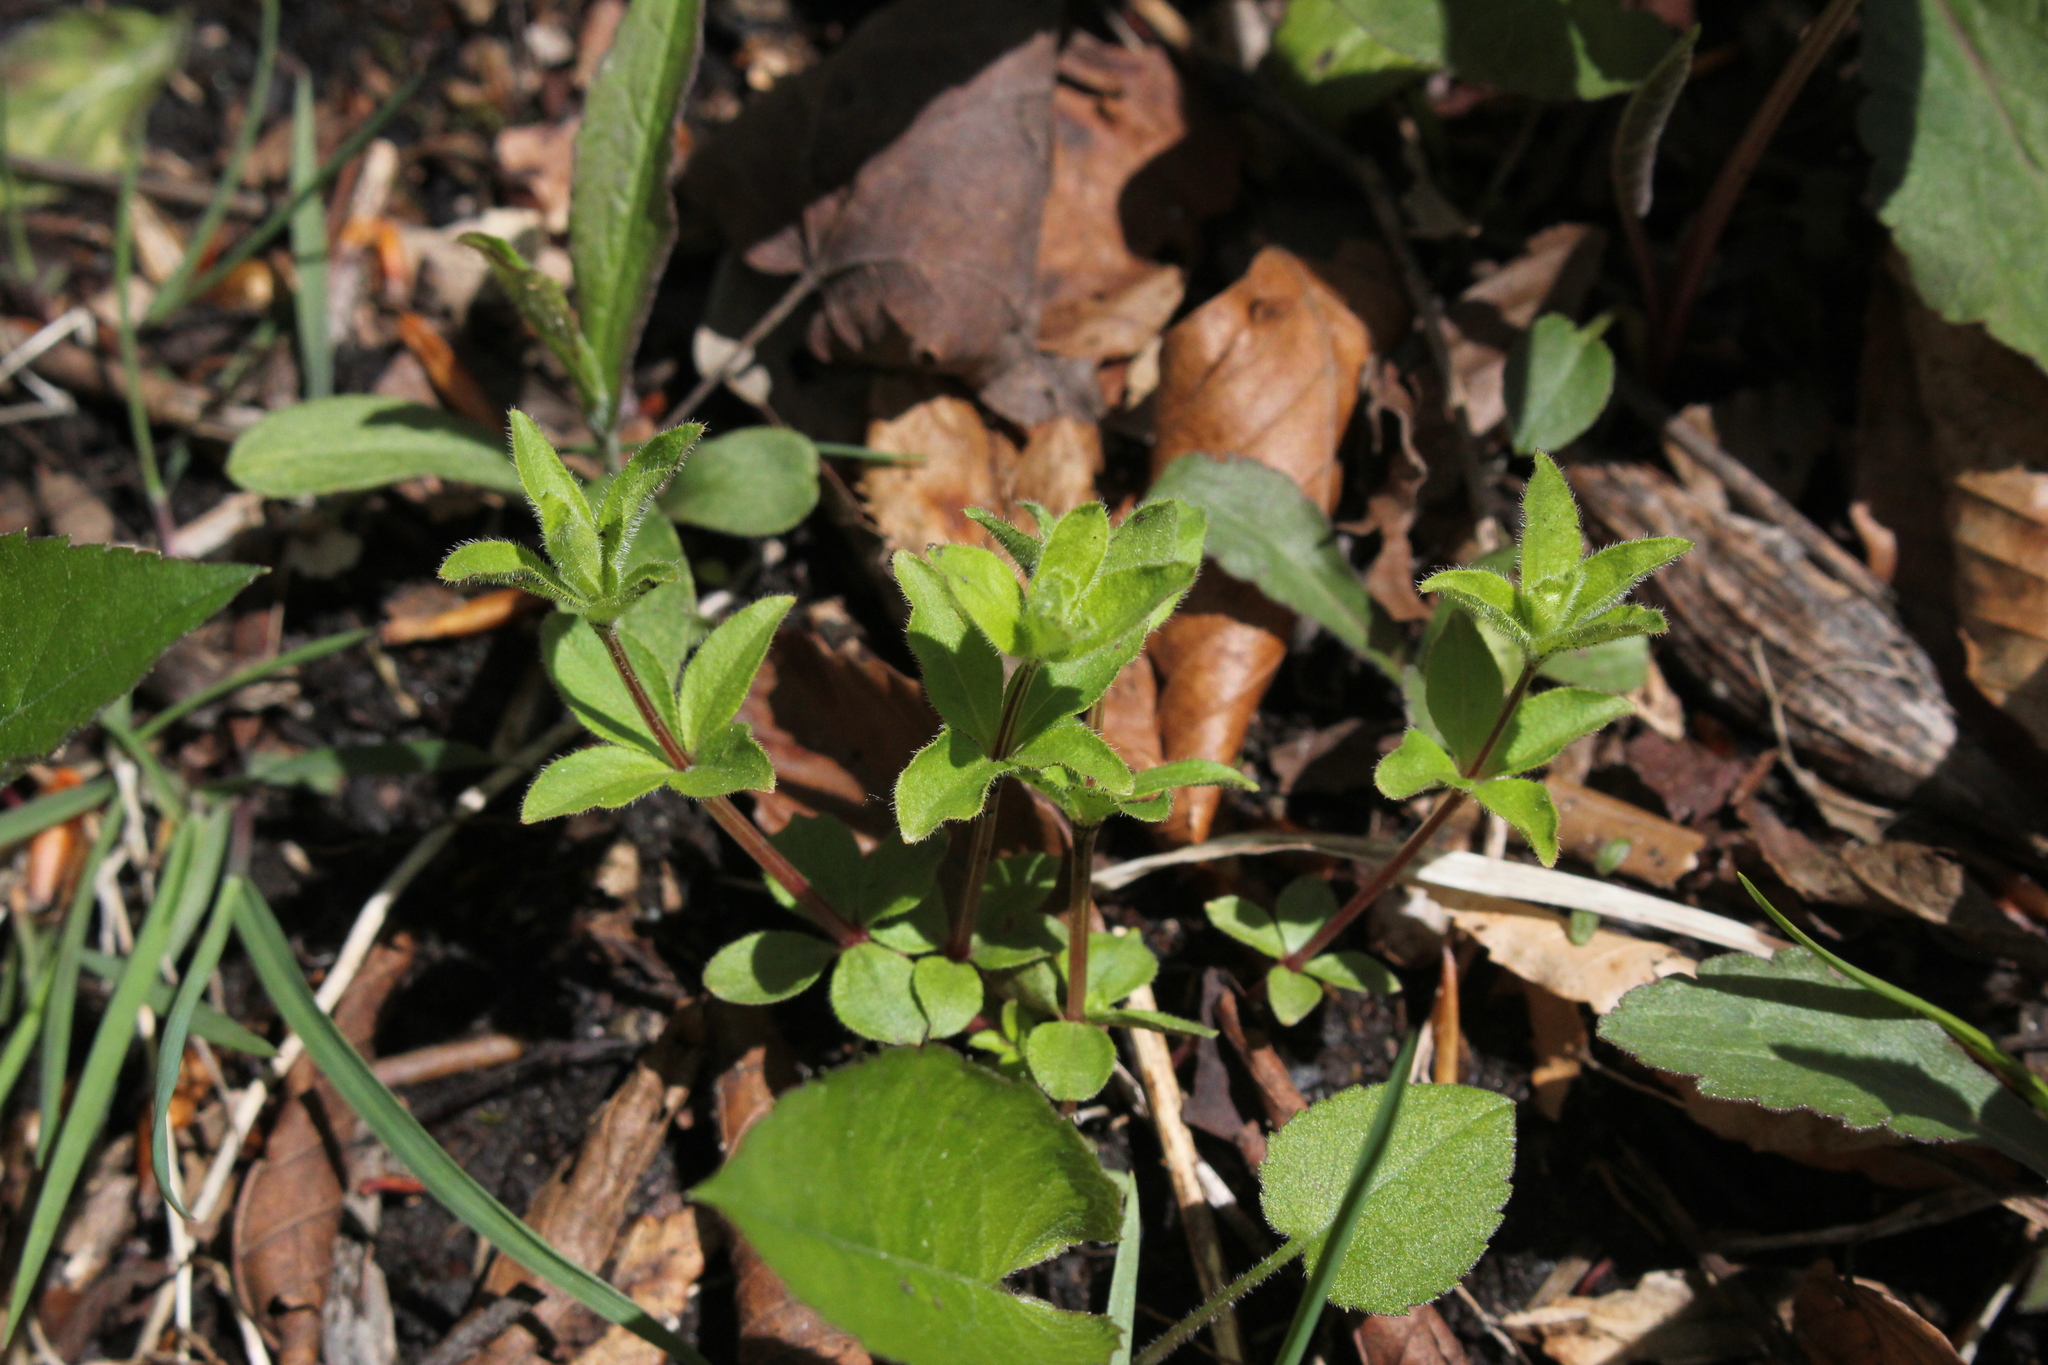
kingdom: Plantae
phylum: Tracheophyta
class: Magnoliopsida
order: Gentianales
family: Rubiaceae
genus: Galium
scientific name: Galium circaezans
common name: Forest bedstraw
